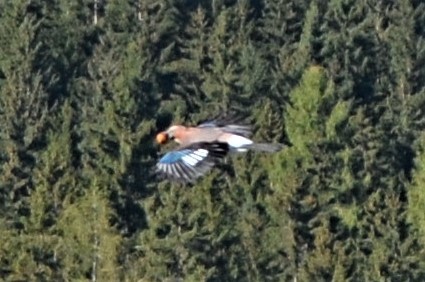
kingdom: Animalia
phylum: Chordata
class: Aves
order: Passeriformes
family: Corvidae
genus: Garrulus
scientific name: Garrulus glandarius
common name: Eurasian jay
